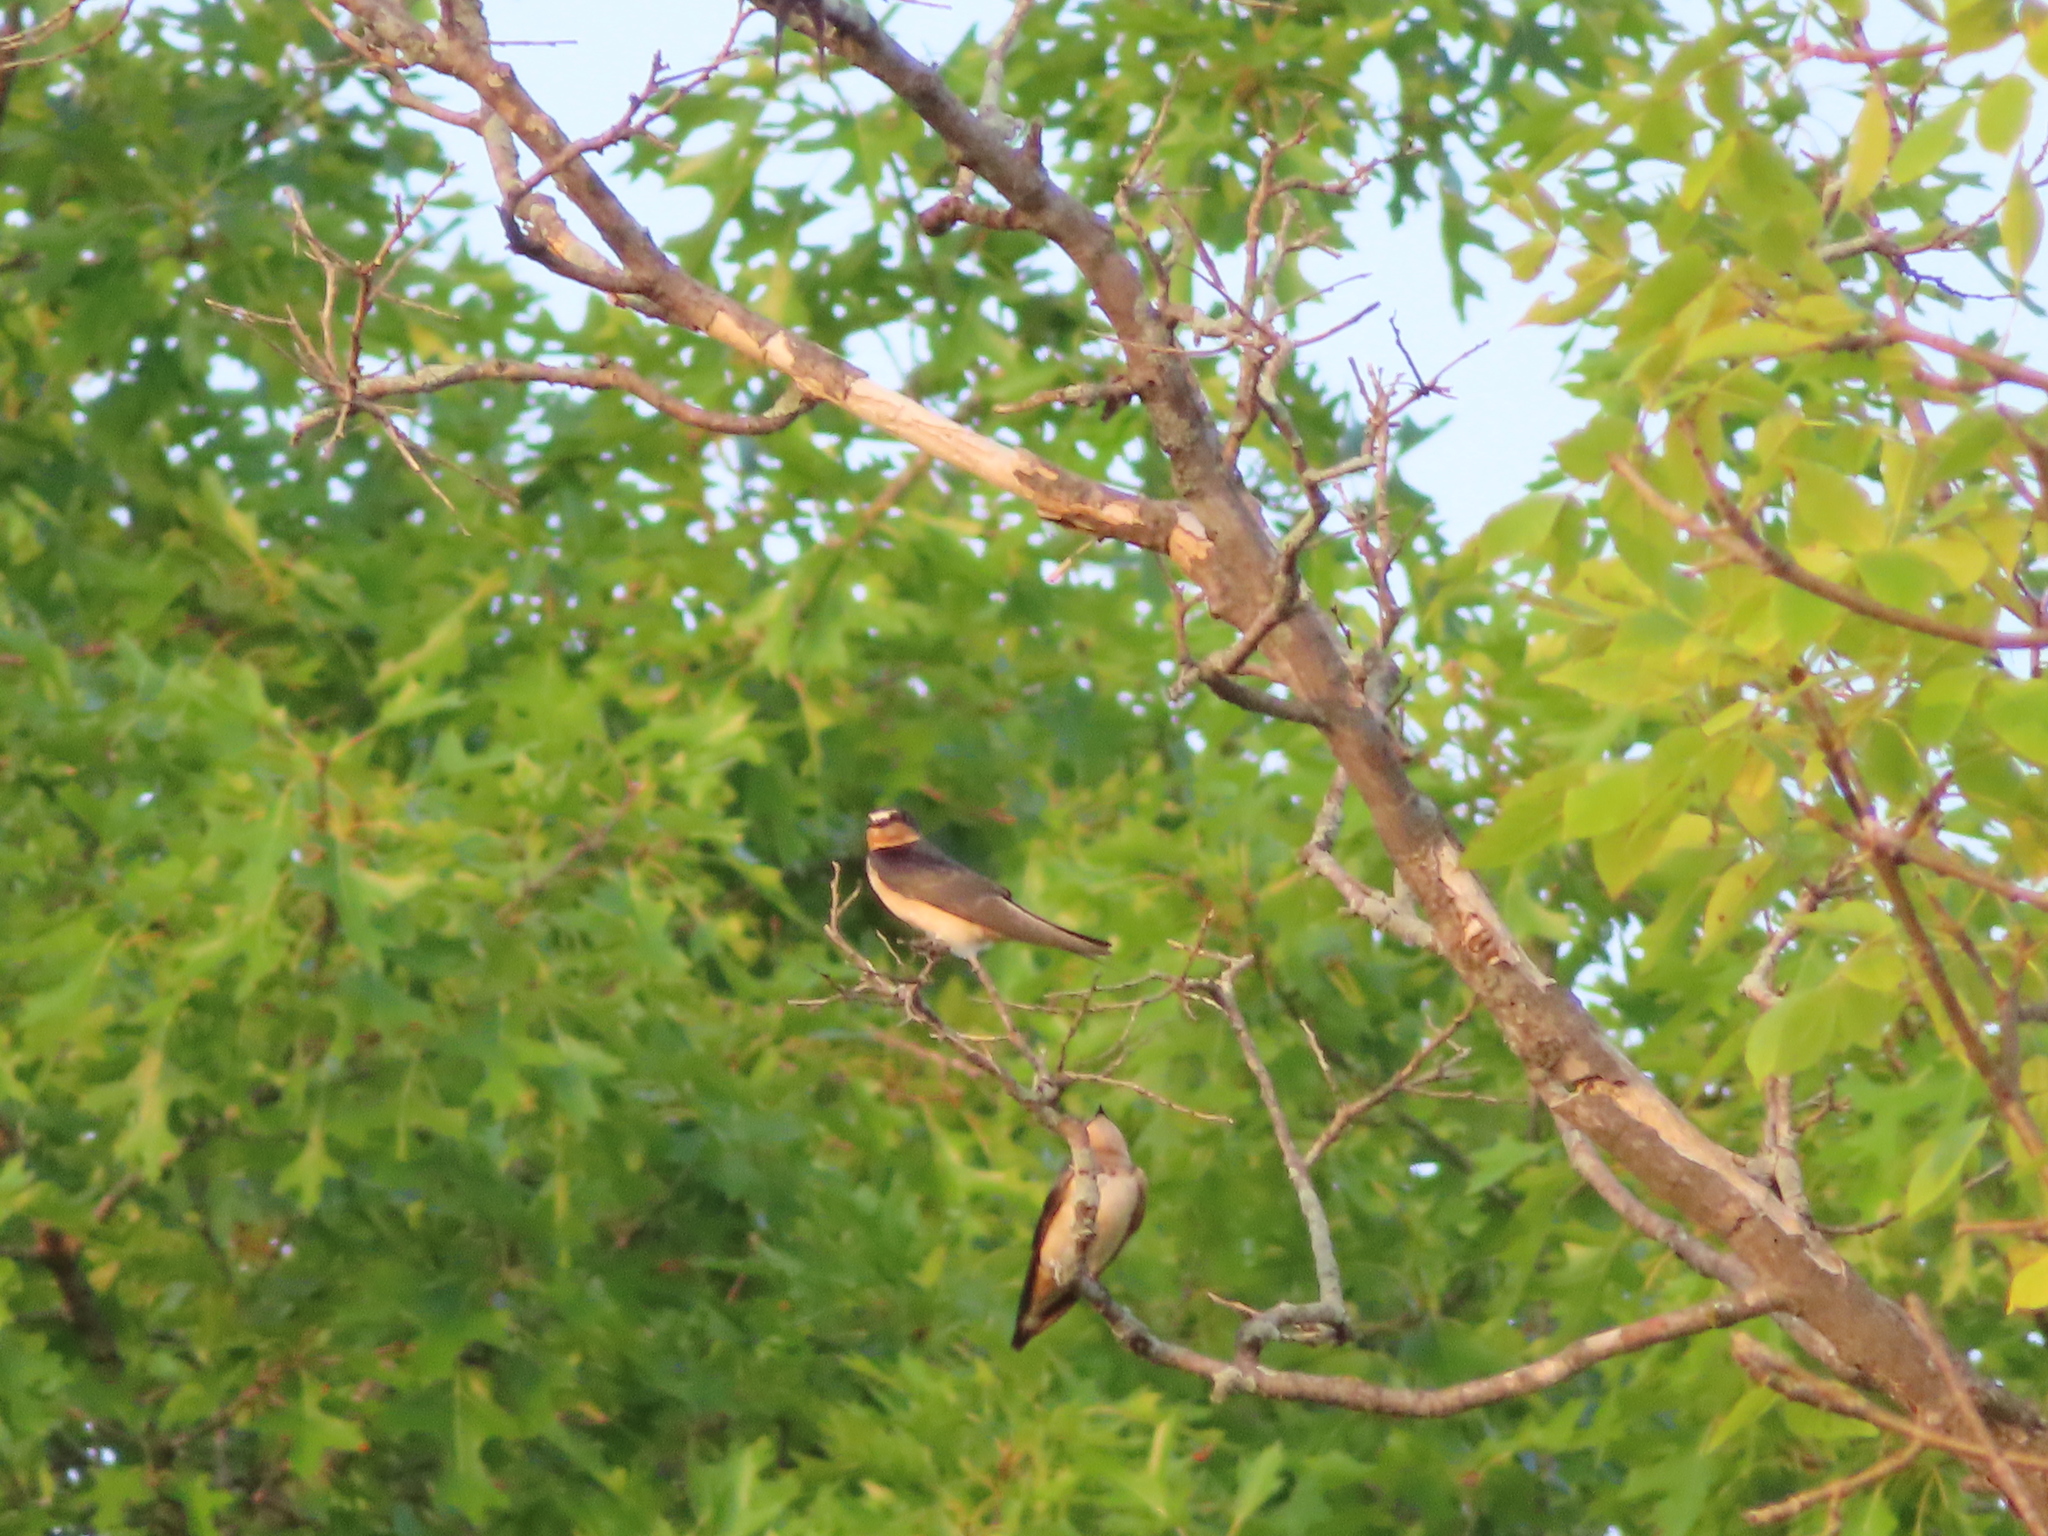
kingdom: Animalia
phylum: Chordata
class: Aves
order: Passeriformes
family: Hirundinidae
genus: Petrochelidon
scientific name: Petrochelidon pyrrhonota
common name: American cliff swallow
